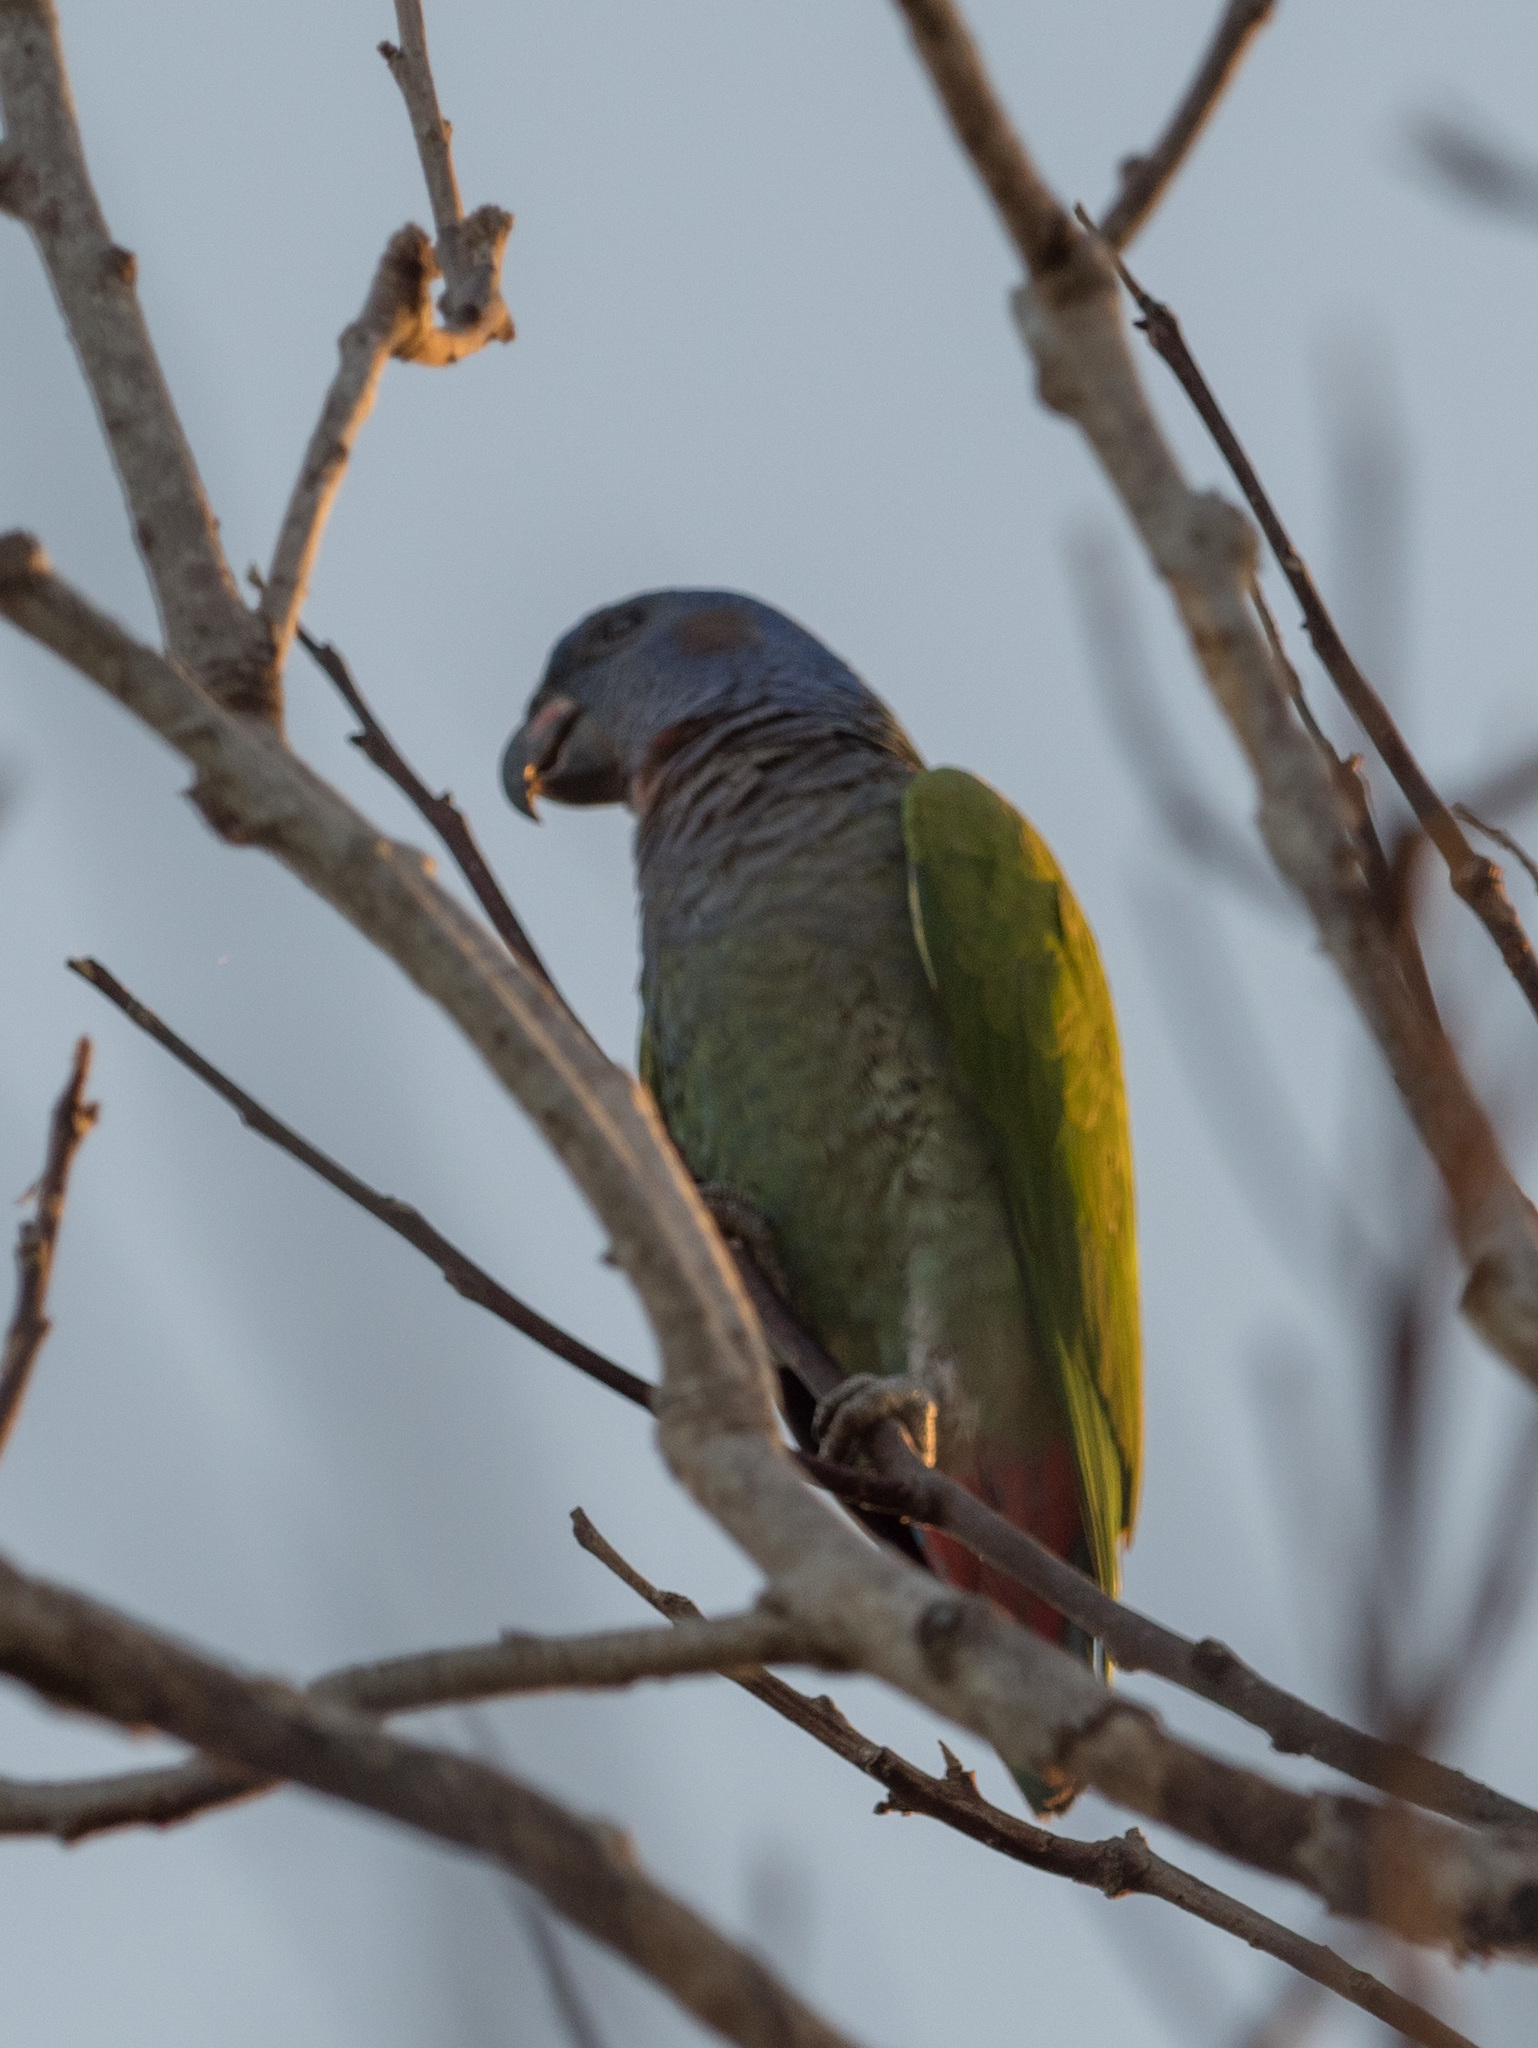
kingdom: Animalia
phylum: Chordata
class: Aves
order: Psittaciformes
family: Psittacidae
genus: Pionus
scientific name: Pionus menstruus
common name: Blue-headed parrot
